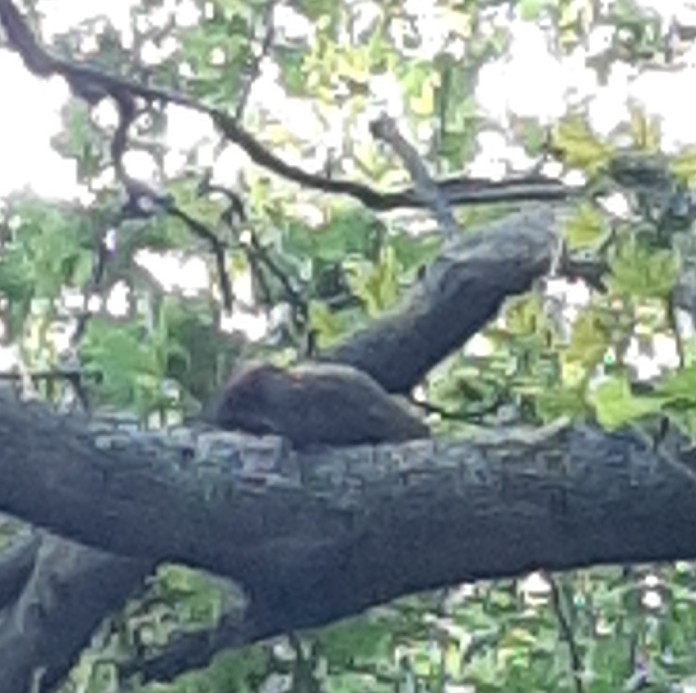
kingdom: Animalia
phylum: Chordata
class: Aves
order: Piciformes
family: Picidae
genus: Picus
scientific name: Picus viridis
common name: European green woodpecker
